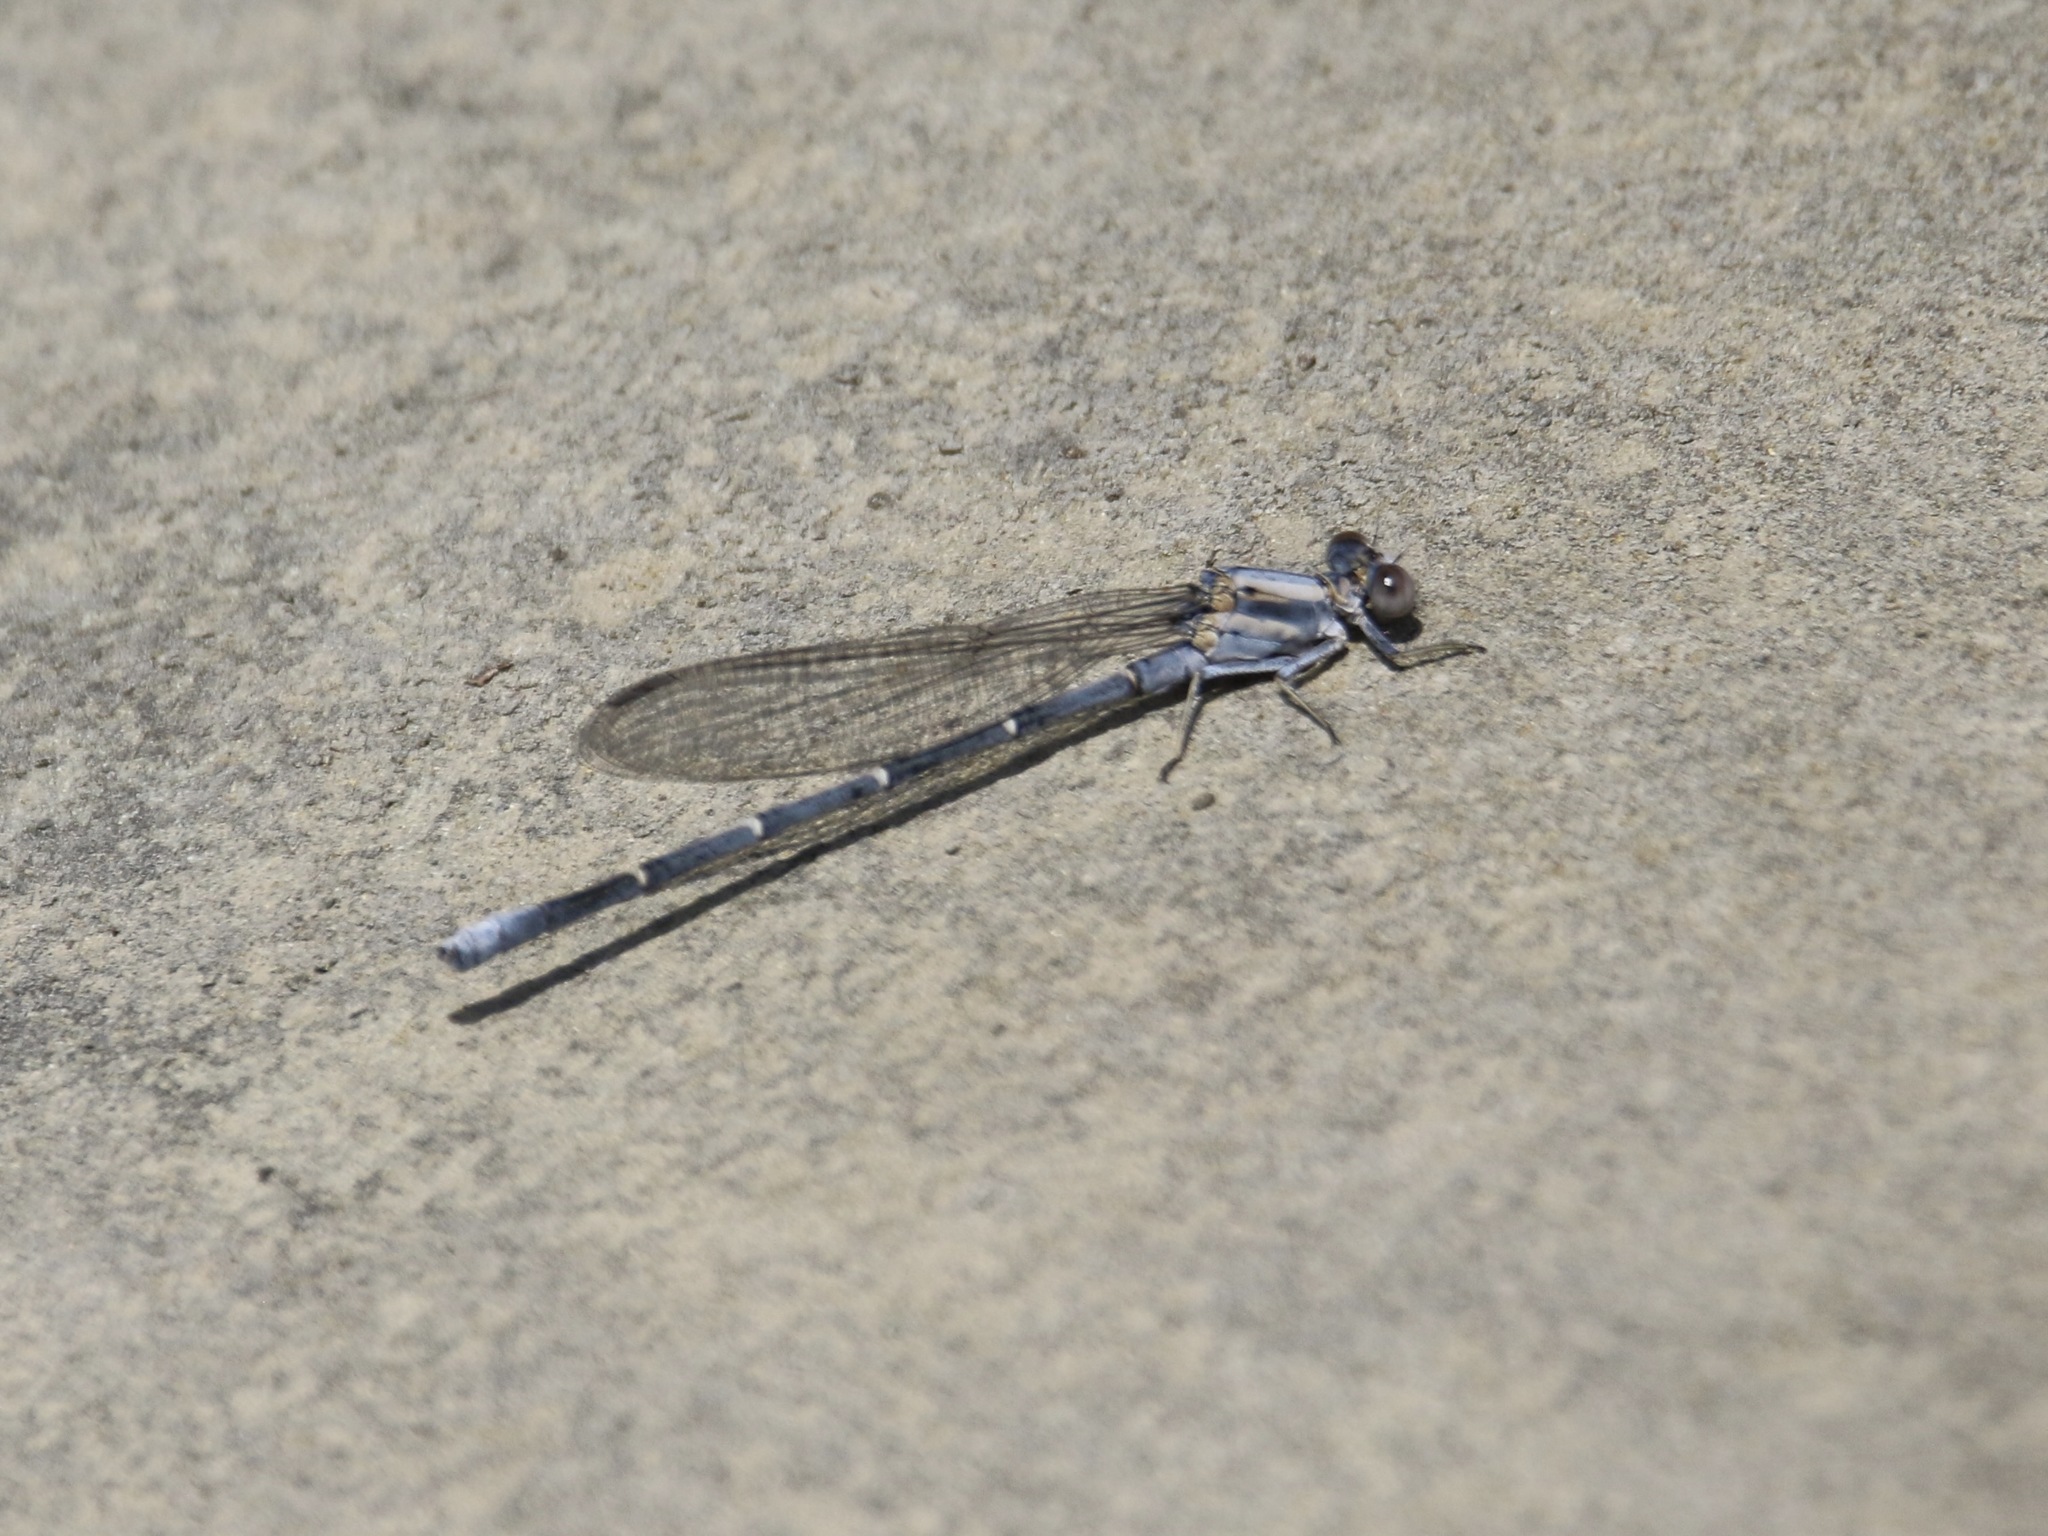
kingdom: Animalia
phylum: Arthropoda
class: Insecta
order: Odonata
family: Coenagrionidae
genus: Argia
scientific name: Argia moesta
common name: Powdered dancer
